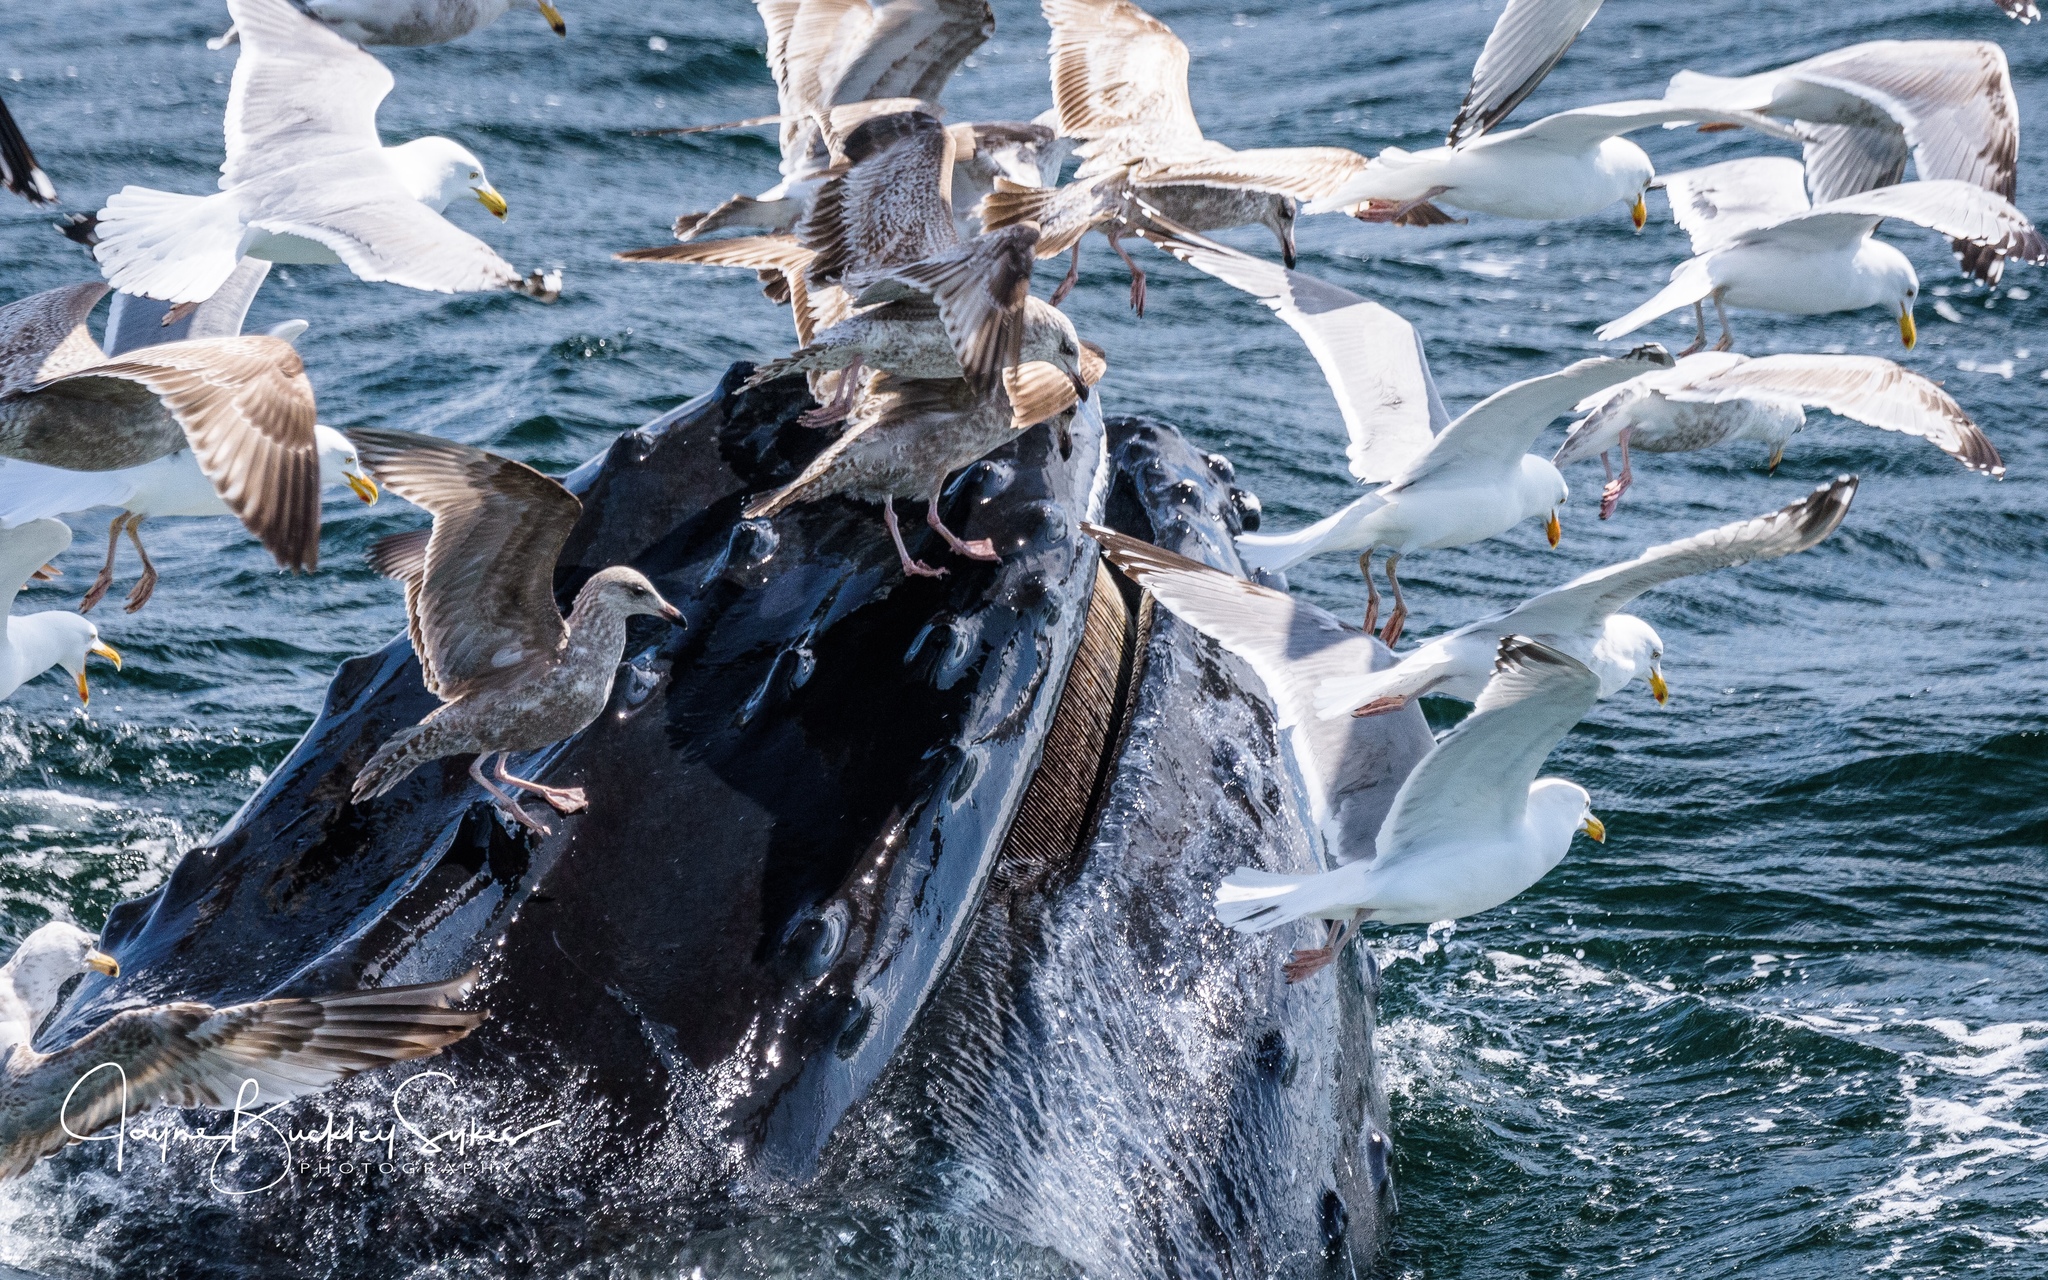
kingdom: Animalia
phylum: Chordata
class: Mammalia
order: Cetacea
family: Balaenopteridae
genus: Megaptera
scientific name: Megaptera novaeangliae
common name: Humpback whale
